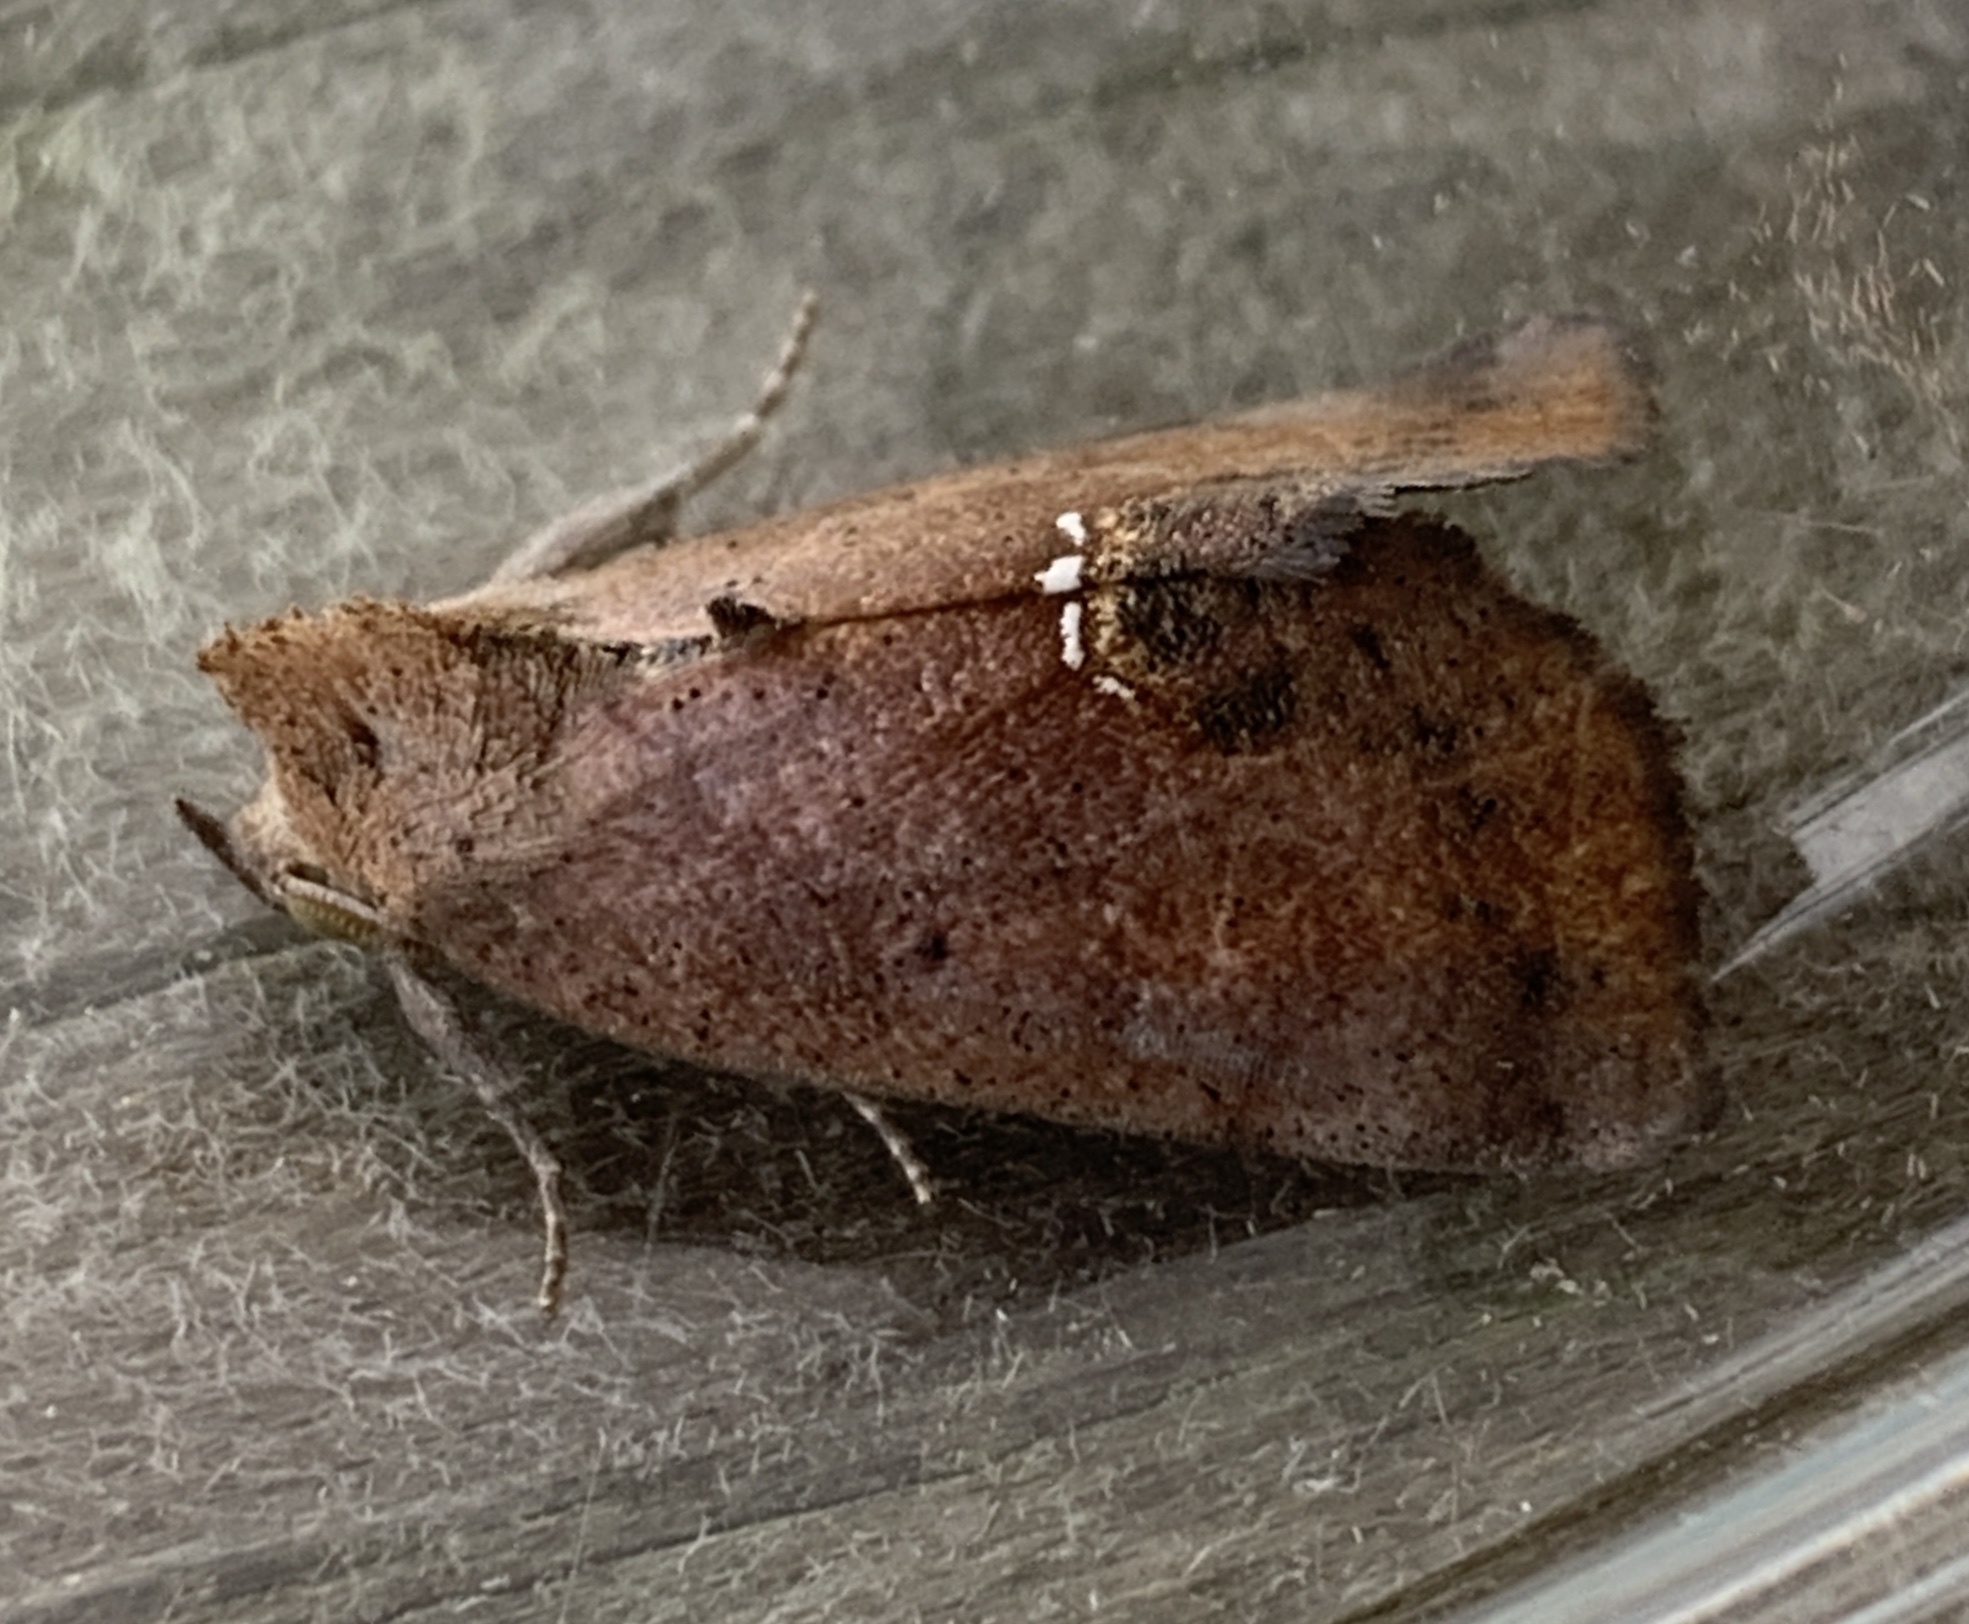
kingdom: Animalia
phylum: Arthropoda
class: Insecta
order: Lepidoptera
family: Erebidae
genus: Hypsoropha
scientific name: Hypsoropha hormos
